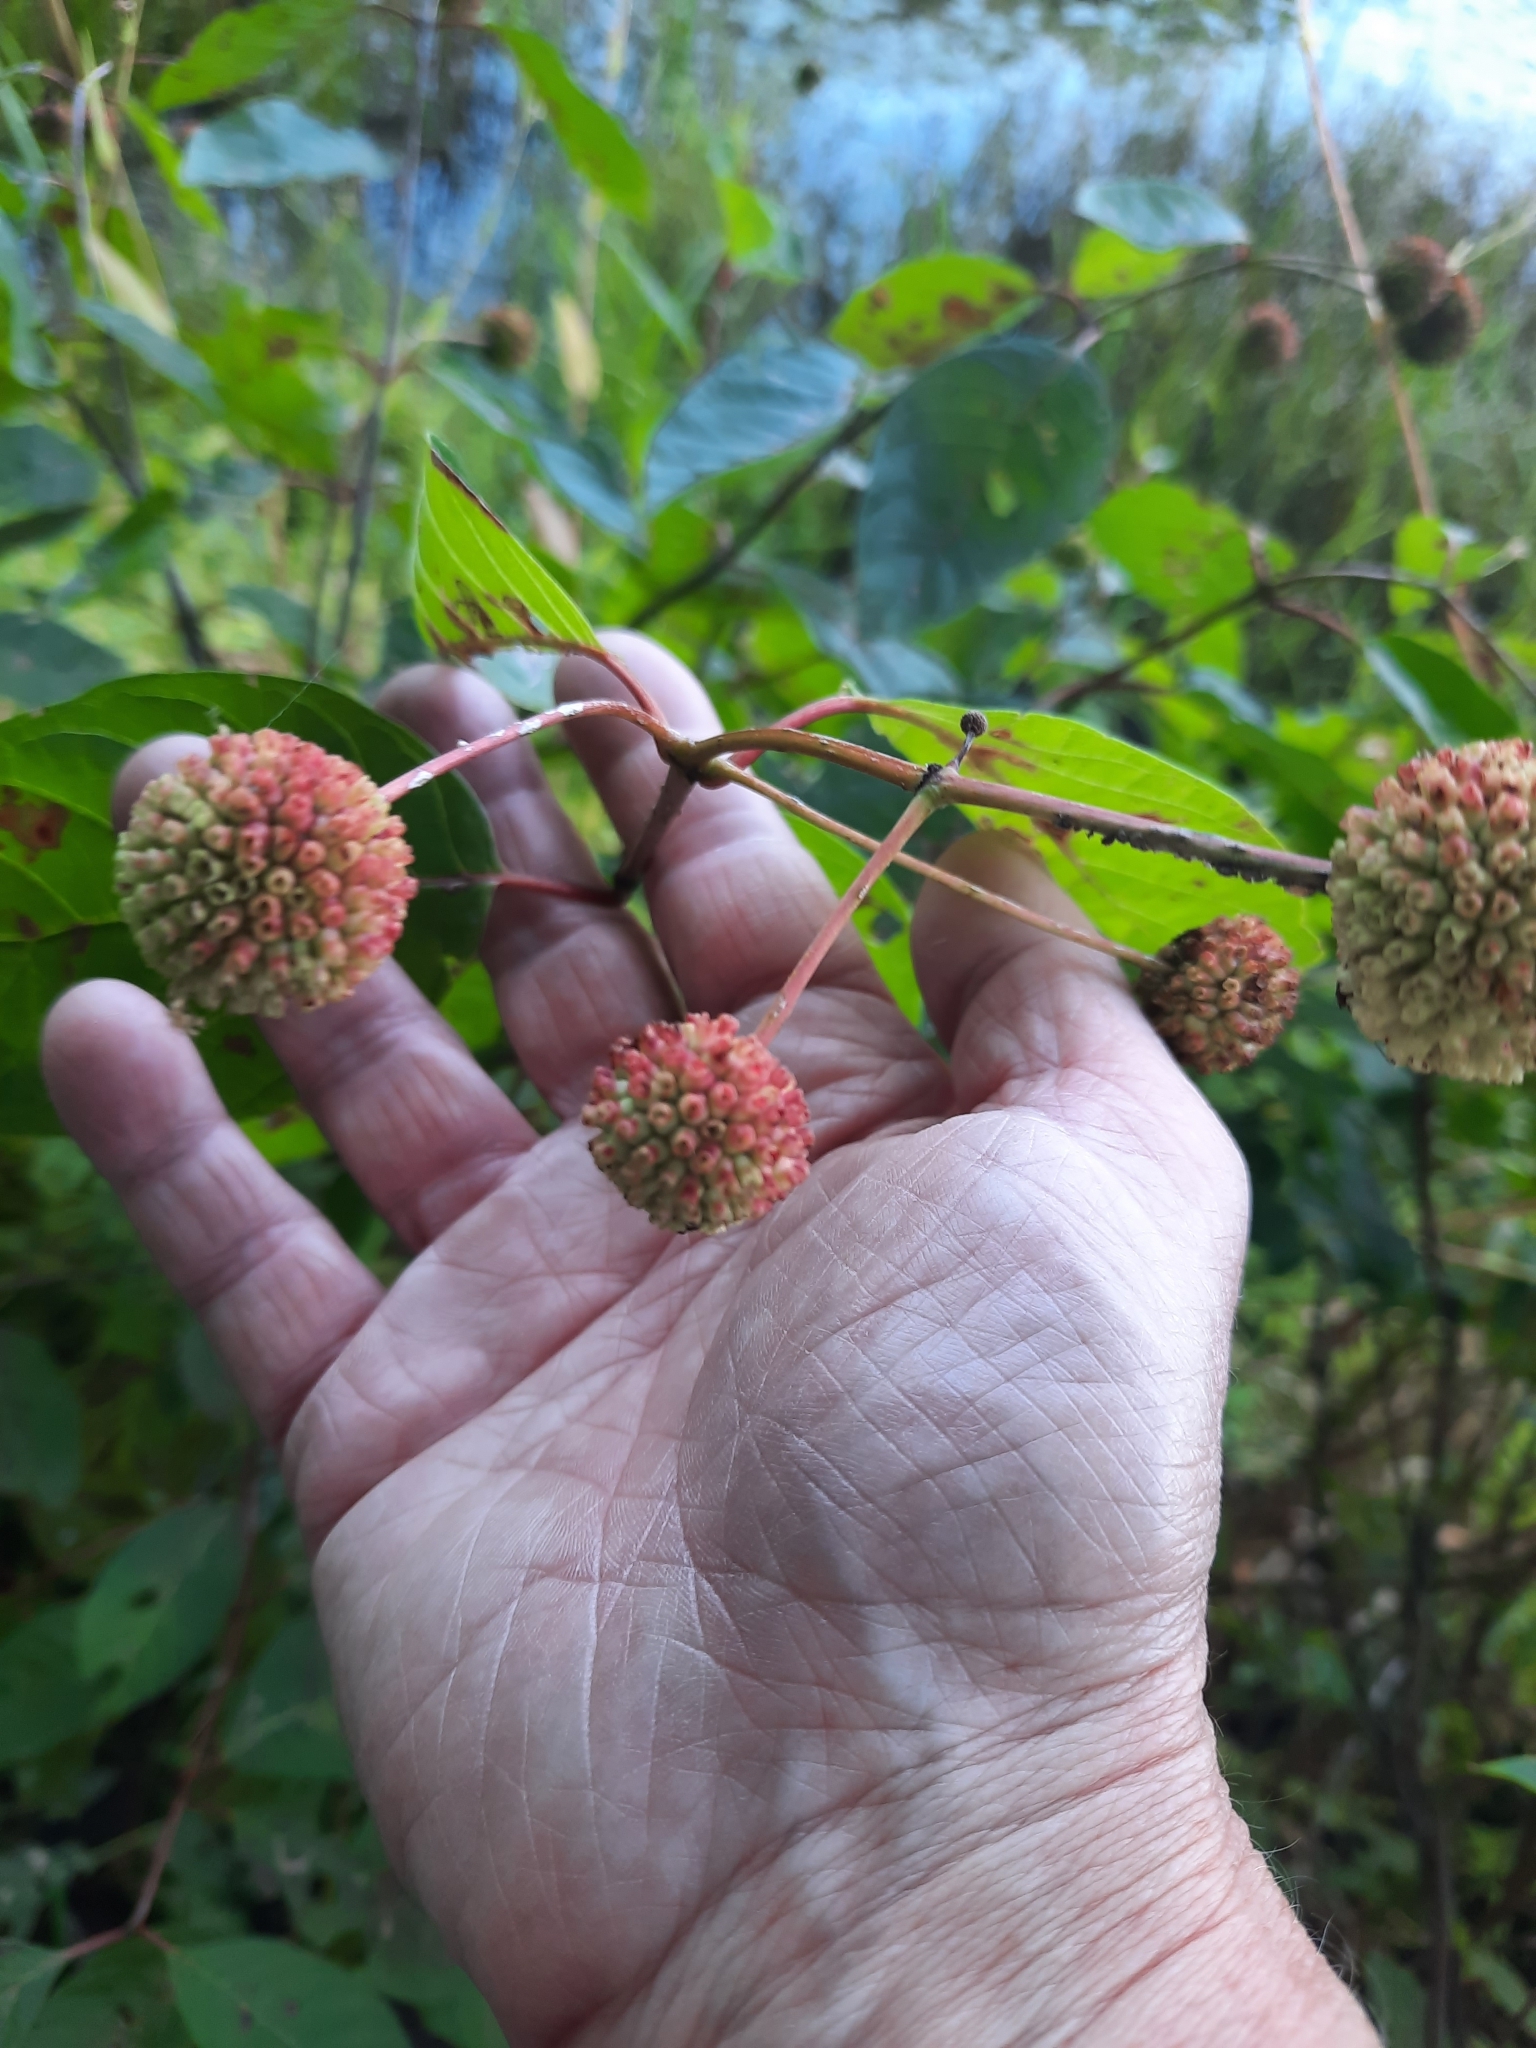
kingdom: Plantae
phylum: Tracheophyta
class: Magnoliopsida
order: Gentianales
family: Rubiaceae
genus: Cephalanthus
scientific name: Cephalanthus occidentalis
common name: Button-willow
